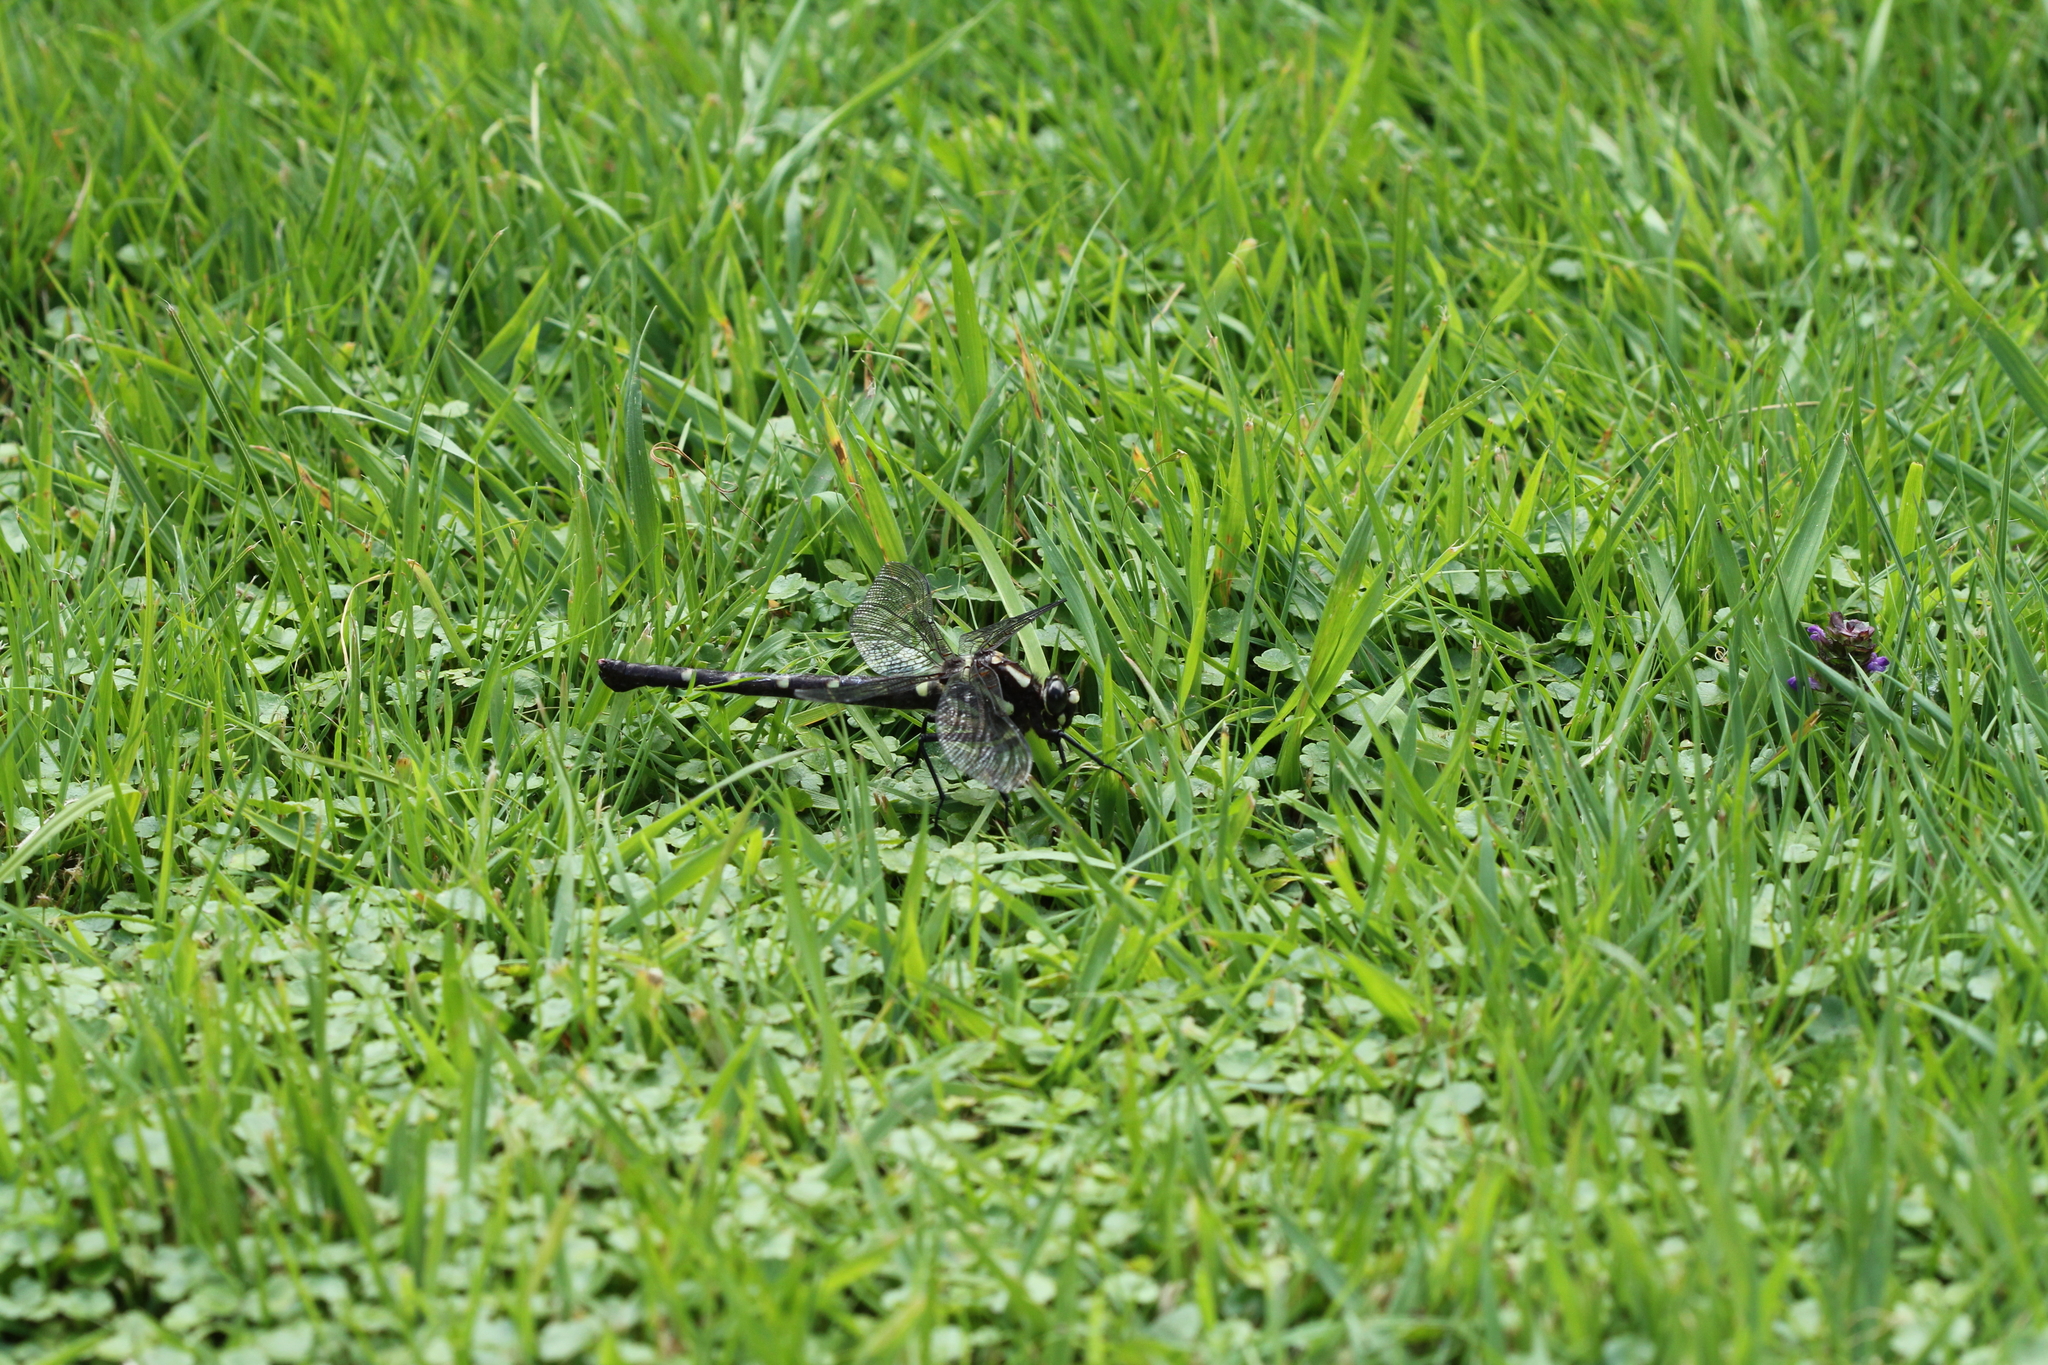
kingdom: Animalia
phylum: Arthropoda
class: Insecta
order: Odonata
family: Petaluridae
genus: Uropetala
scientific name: Uropetala carovei
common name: Bush giant dragonfly
